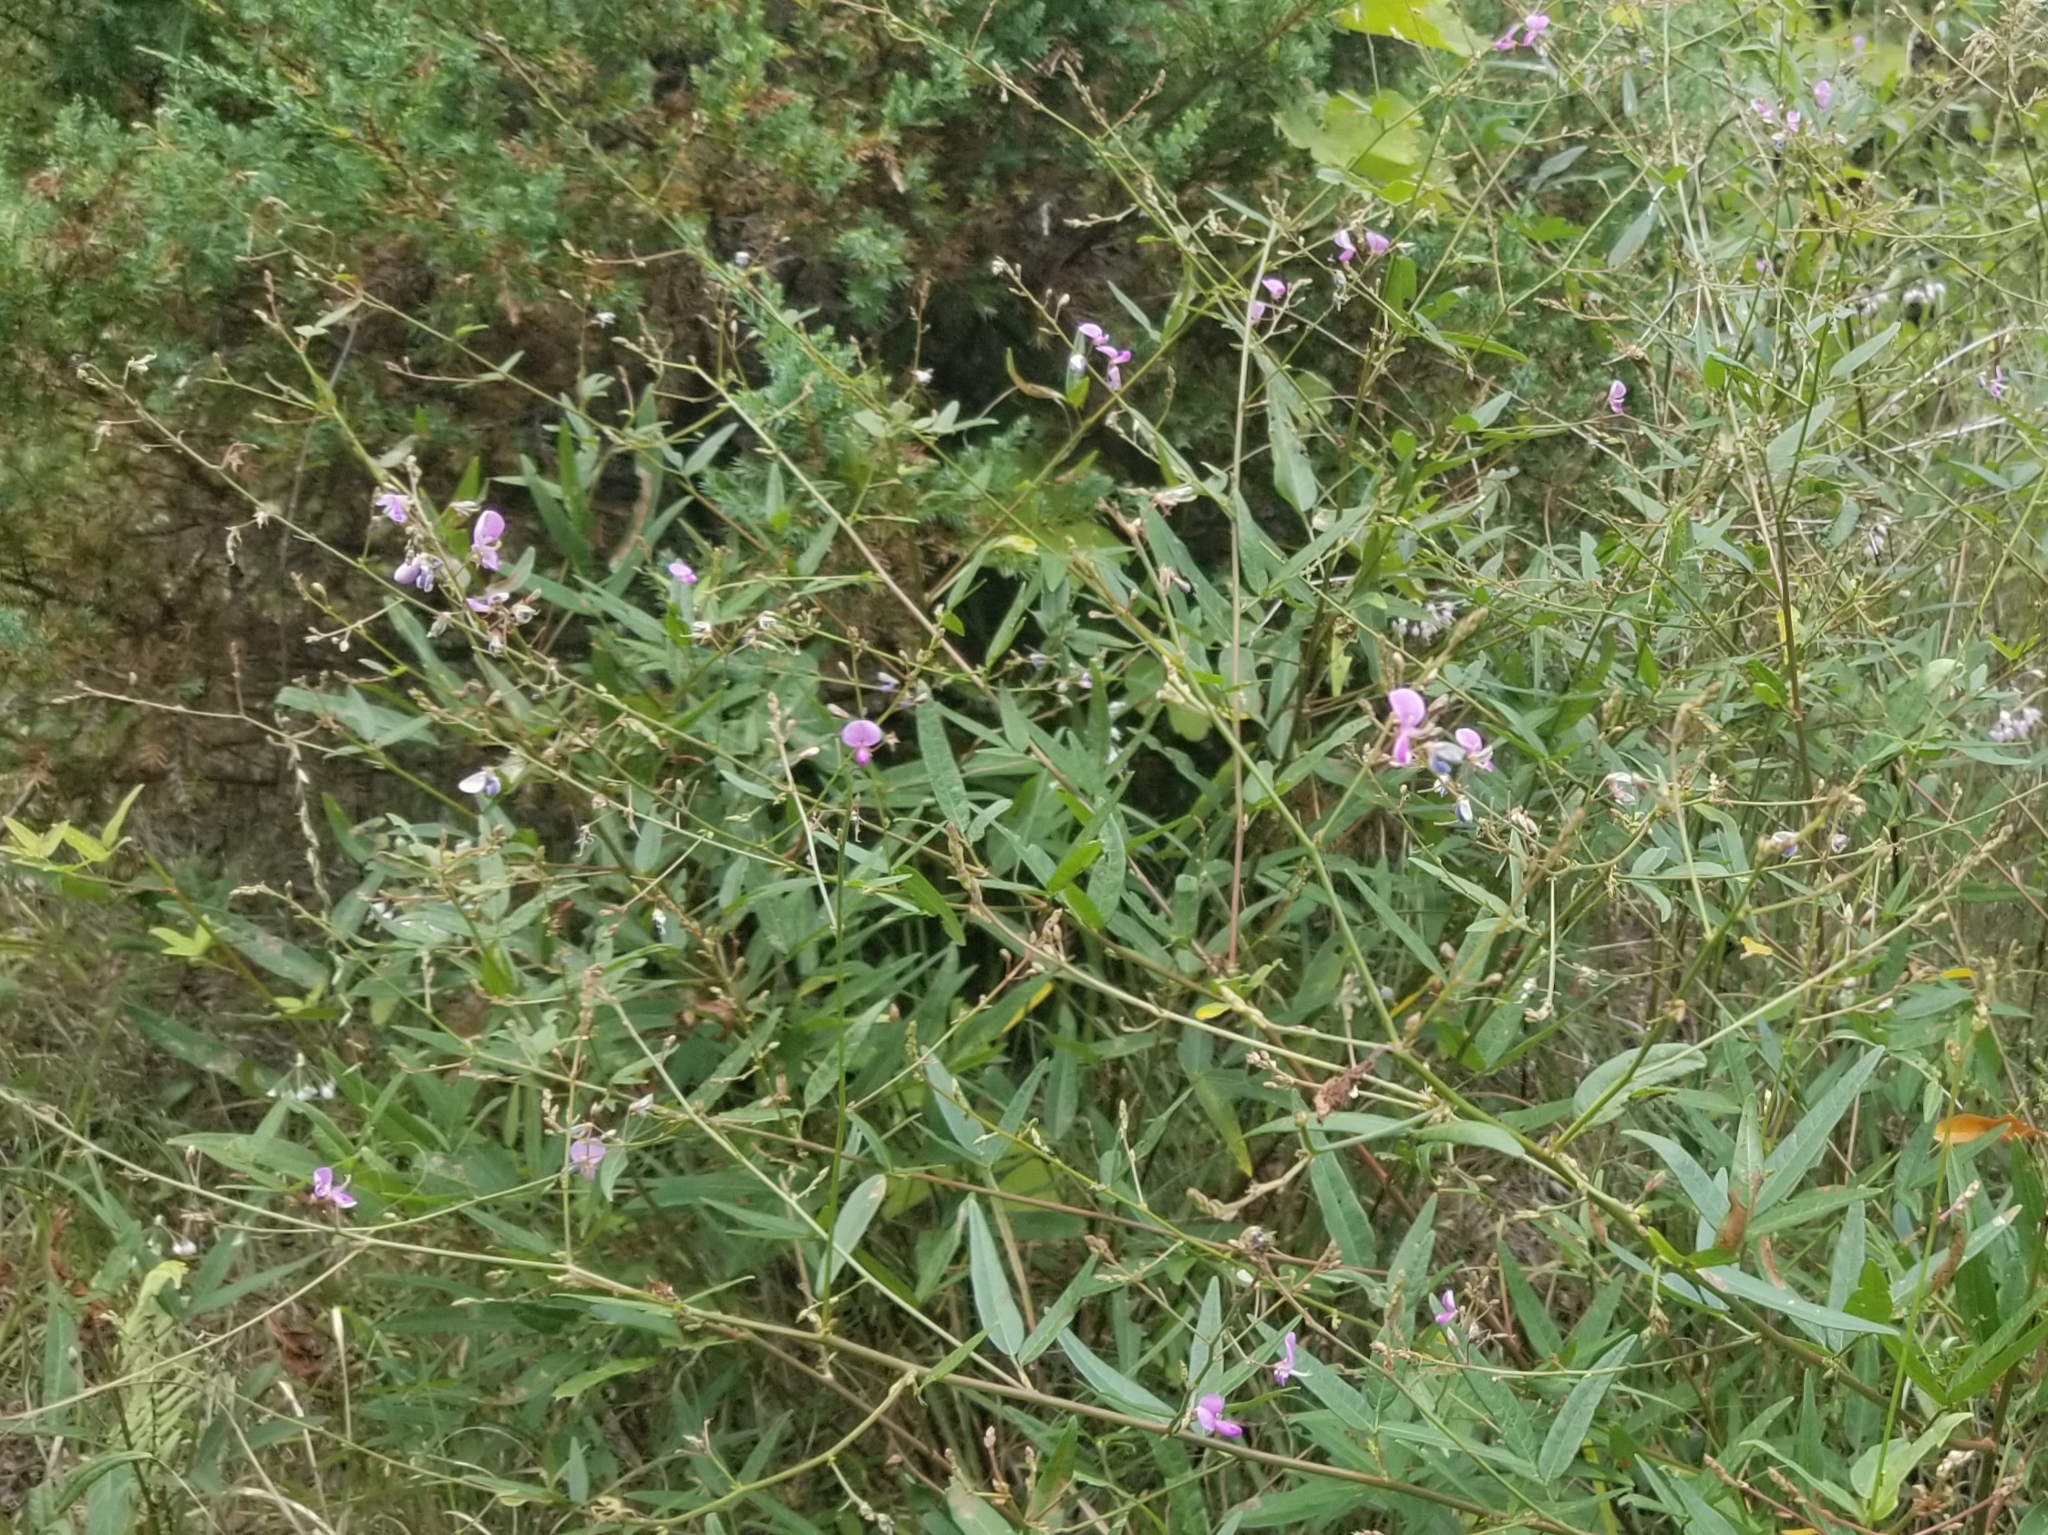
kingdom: Plantae
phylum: Tracheophyta
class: Magnoliopsida
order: Fabales
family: Fabaceae
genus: Desmodium
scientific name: Desmodium paniculatum
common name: Panicled tick-clover
